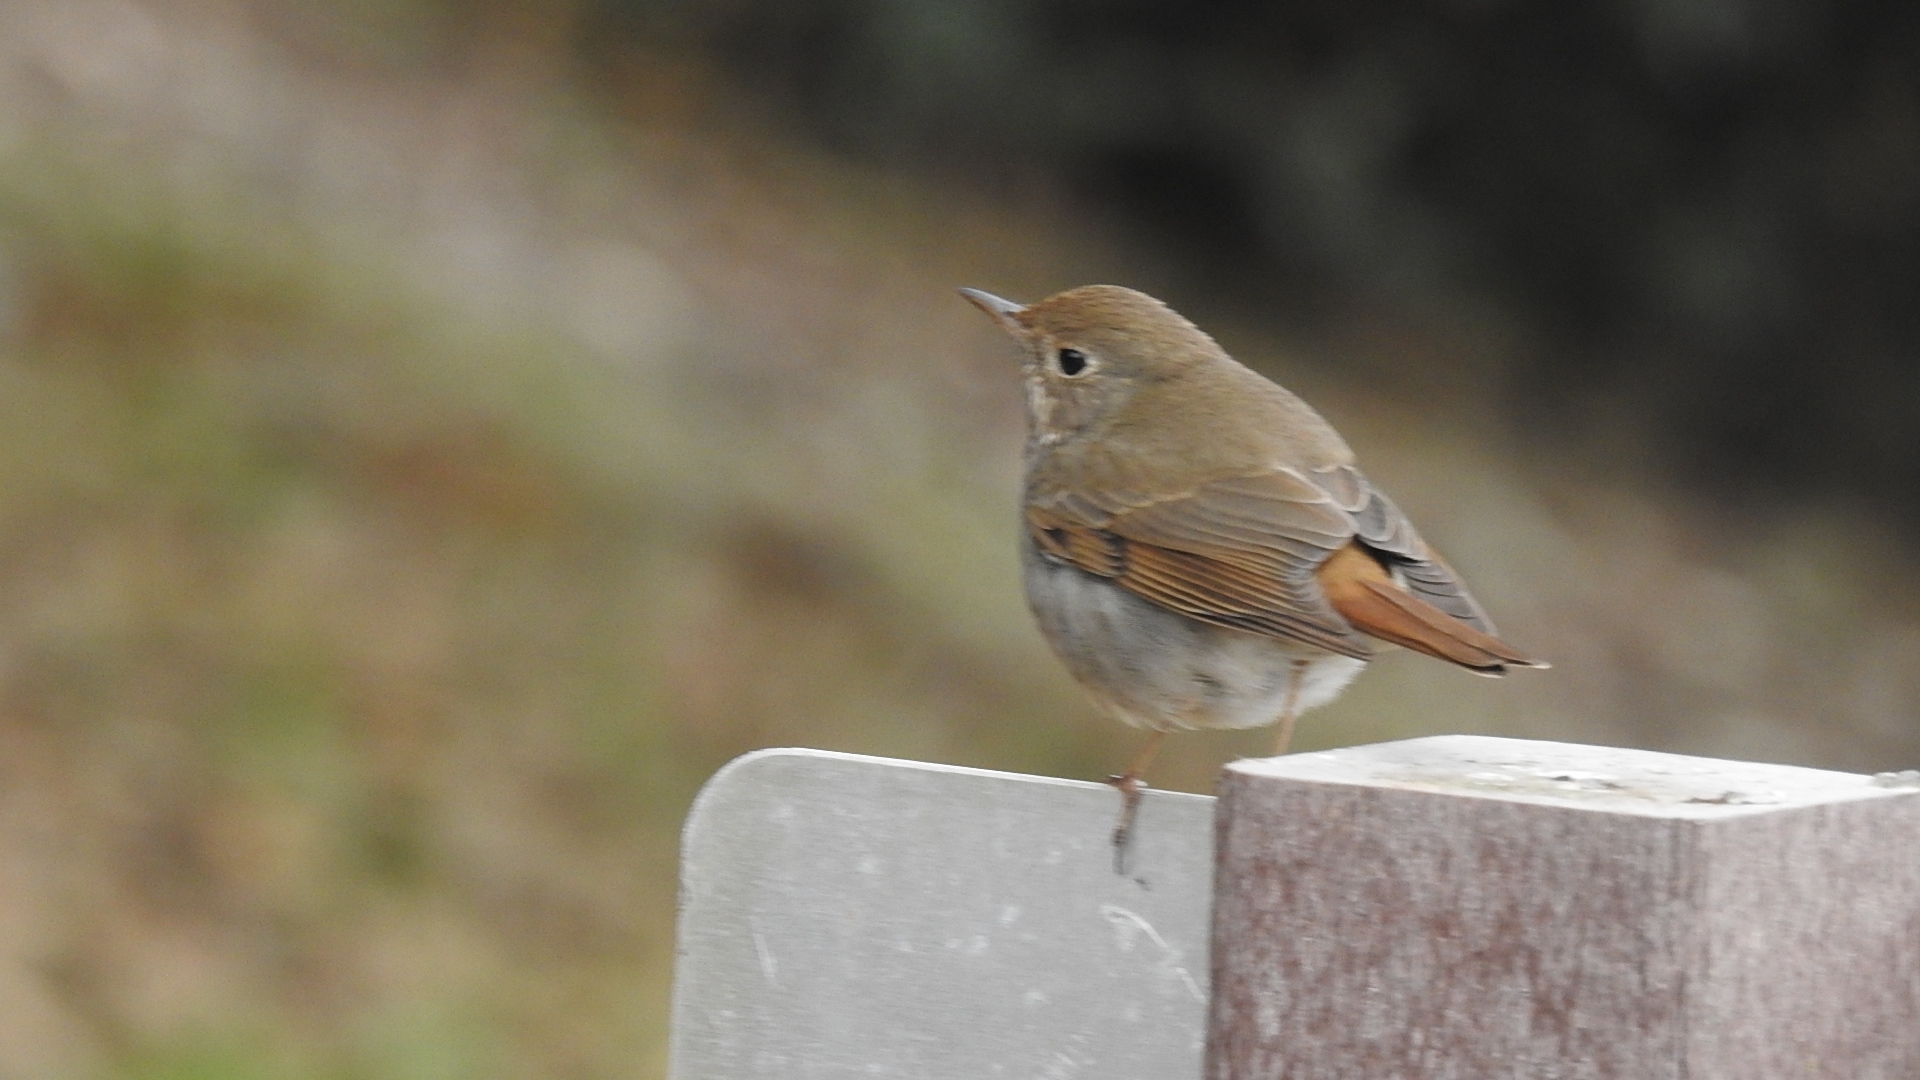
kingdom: Animalia
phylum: Chordata
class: Aves
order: Passeriformes
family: Turdidae
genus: Catharus
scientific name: Catharus guttatus
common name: Hermit thrush
